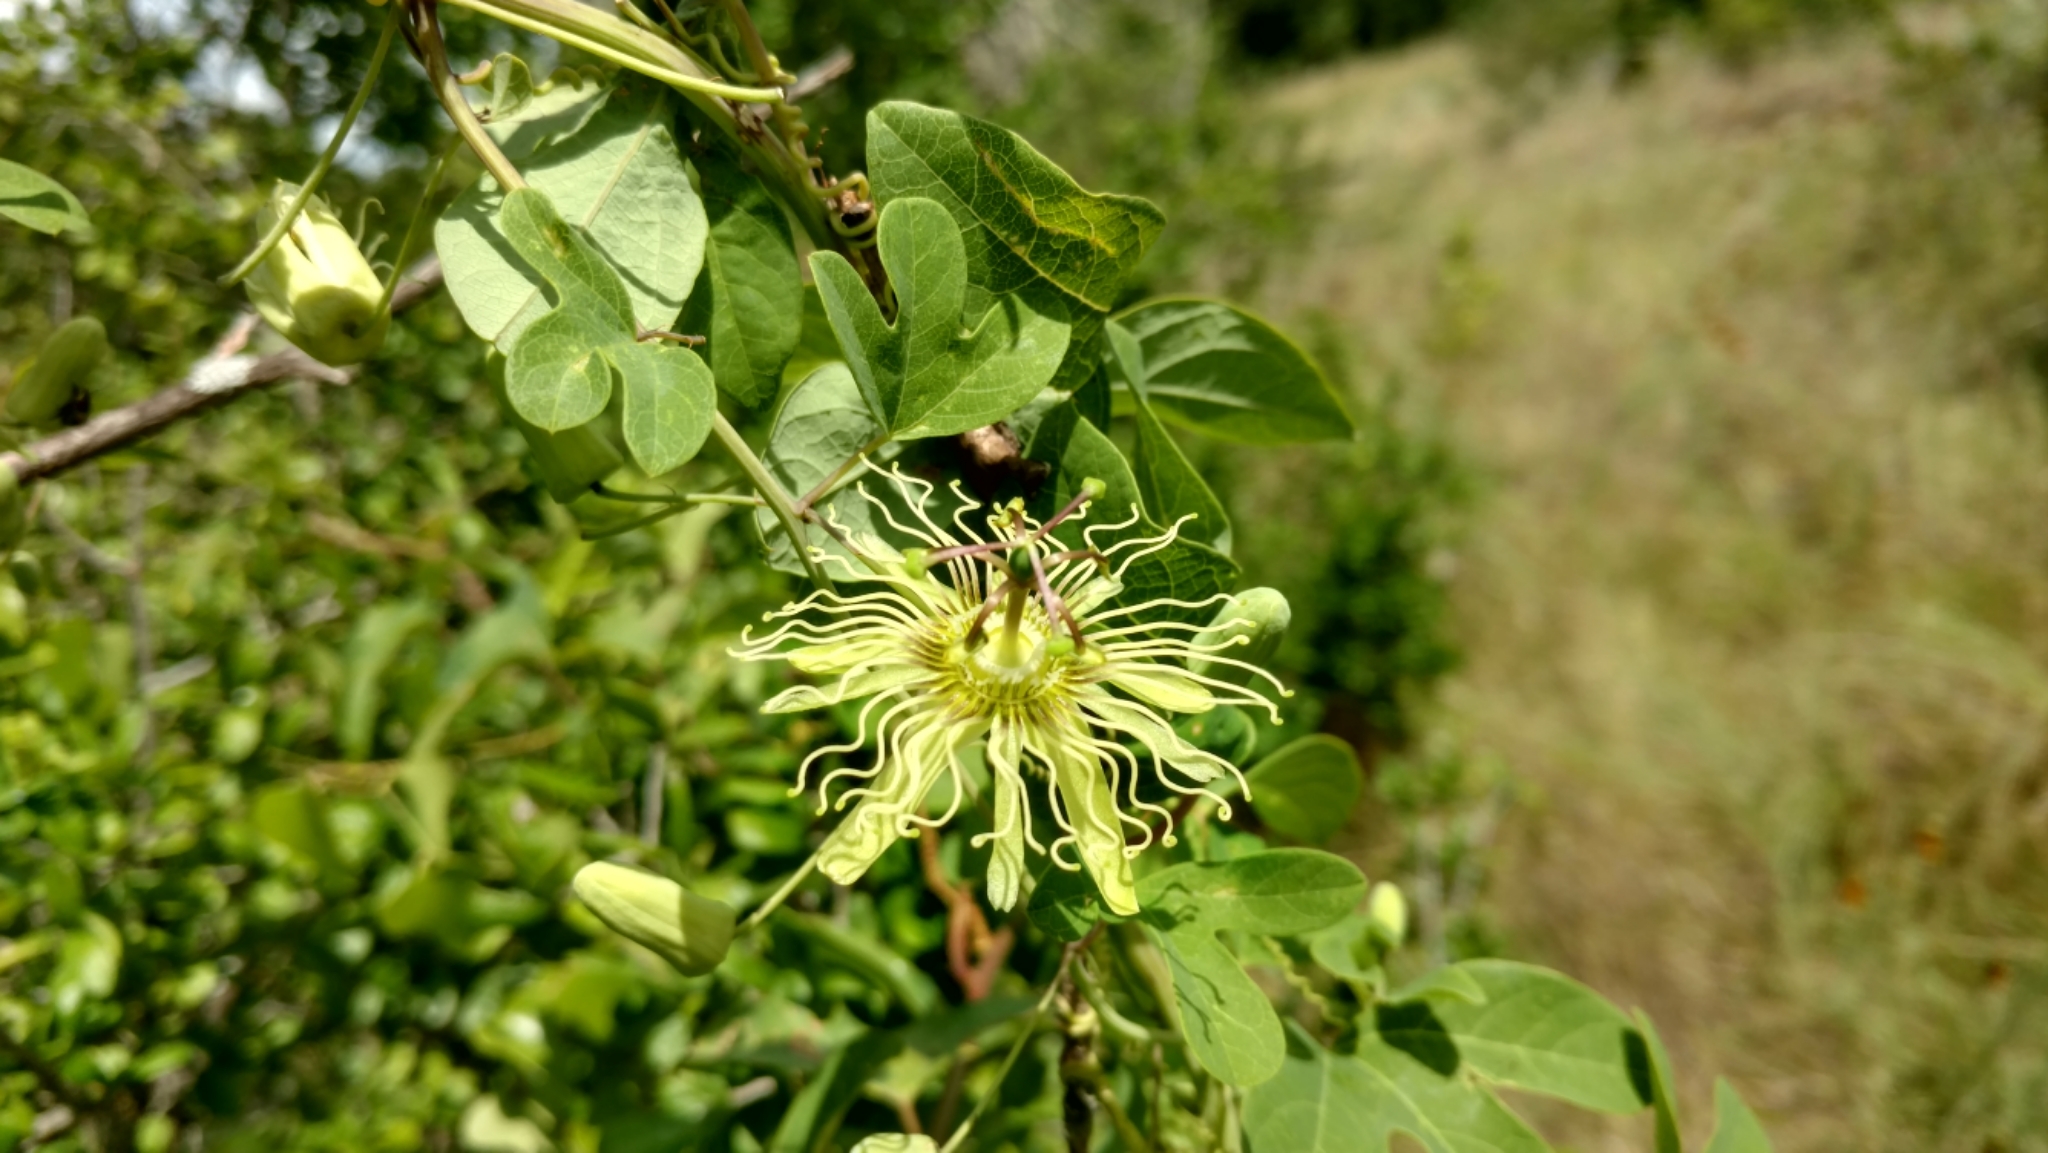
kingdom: Plantae
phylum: Tracheophyta
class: Magnoliopsida
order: Malpighiales
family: Passifloraceae
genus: Passiflora
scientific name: Passiflora affinis
